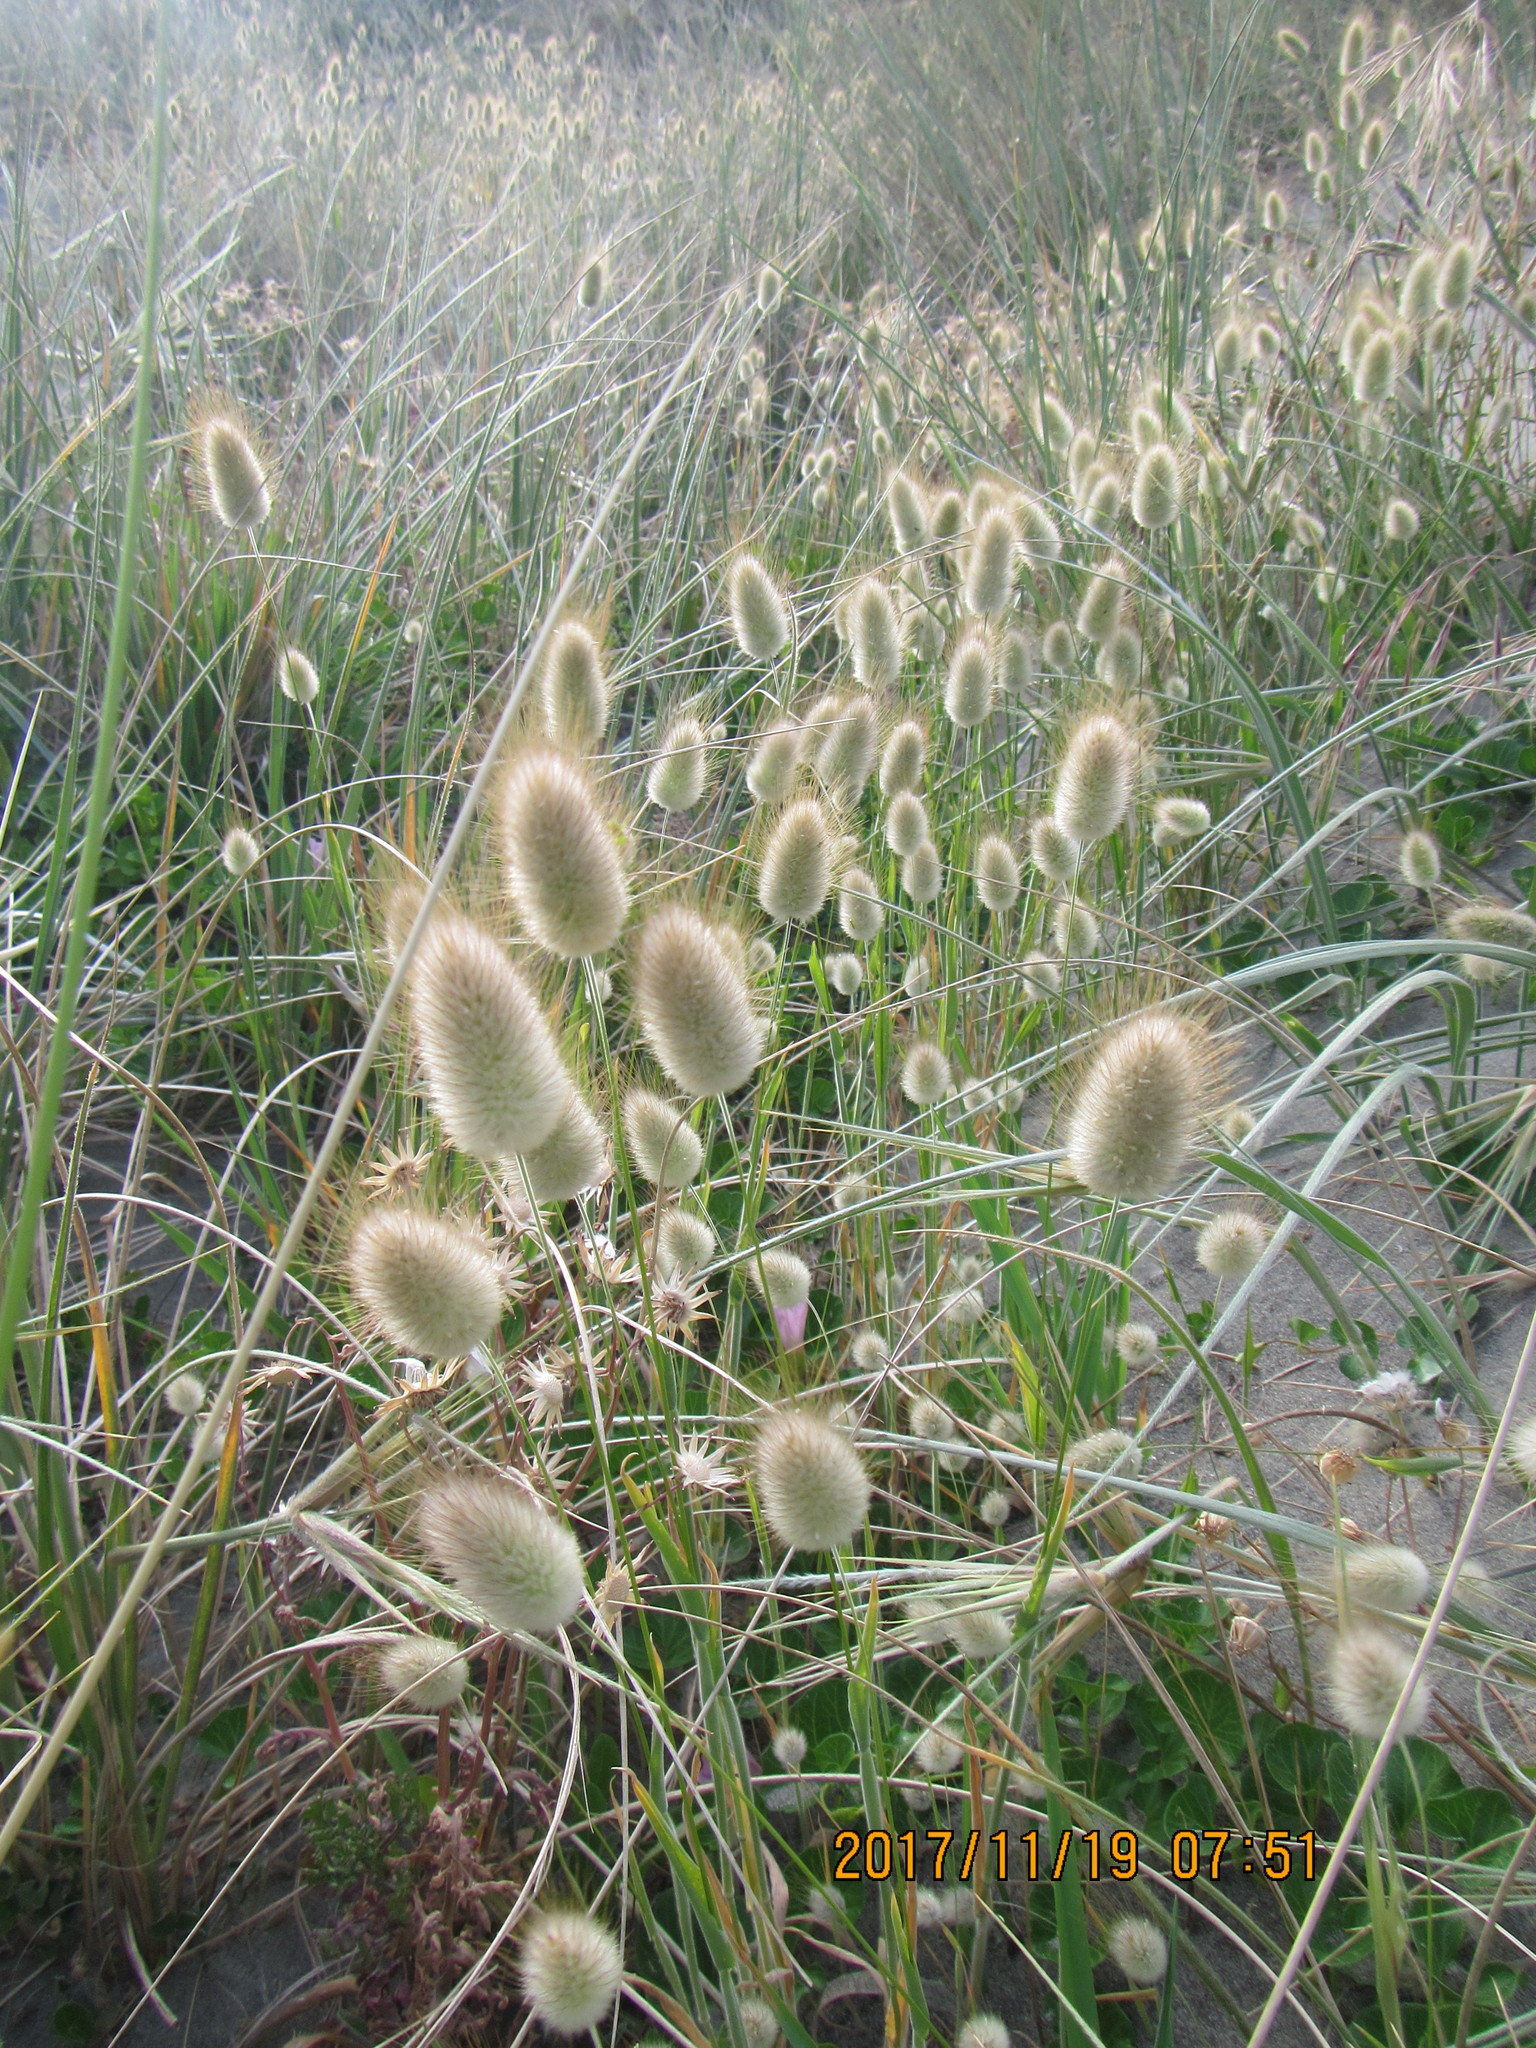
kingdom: Plantae
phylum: Tracheophyta
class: Liliopsida
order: Poales
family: Poaceae
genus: Lagurus
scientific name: Lagurus ovatus
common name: Hare's-tail
